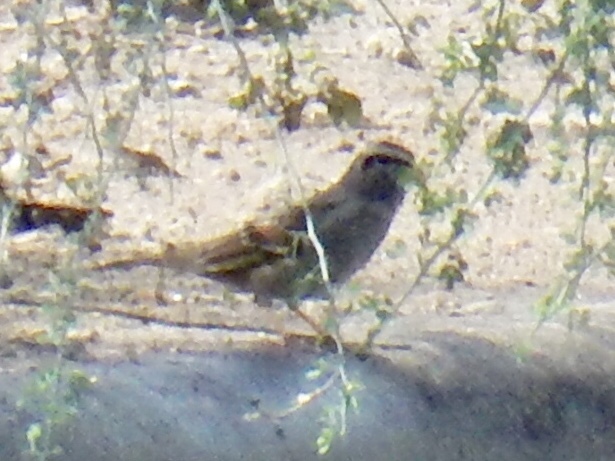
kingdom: Animalia
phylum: Chordata
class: Aves
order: Passeriformes
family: Passerellidae
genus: Spizella
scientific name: Spizella passerina
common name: Chipping sparrow
